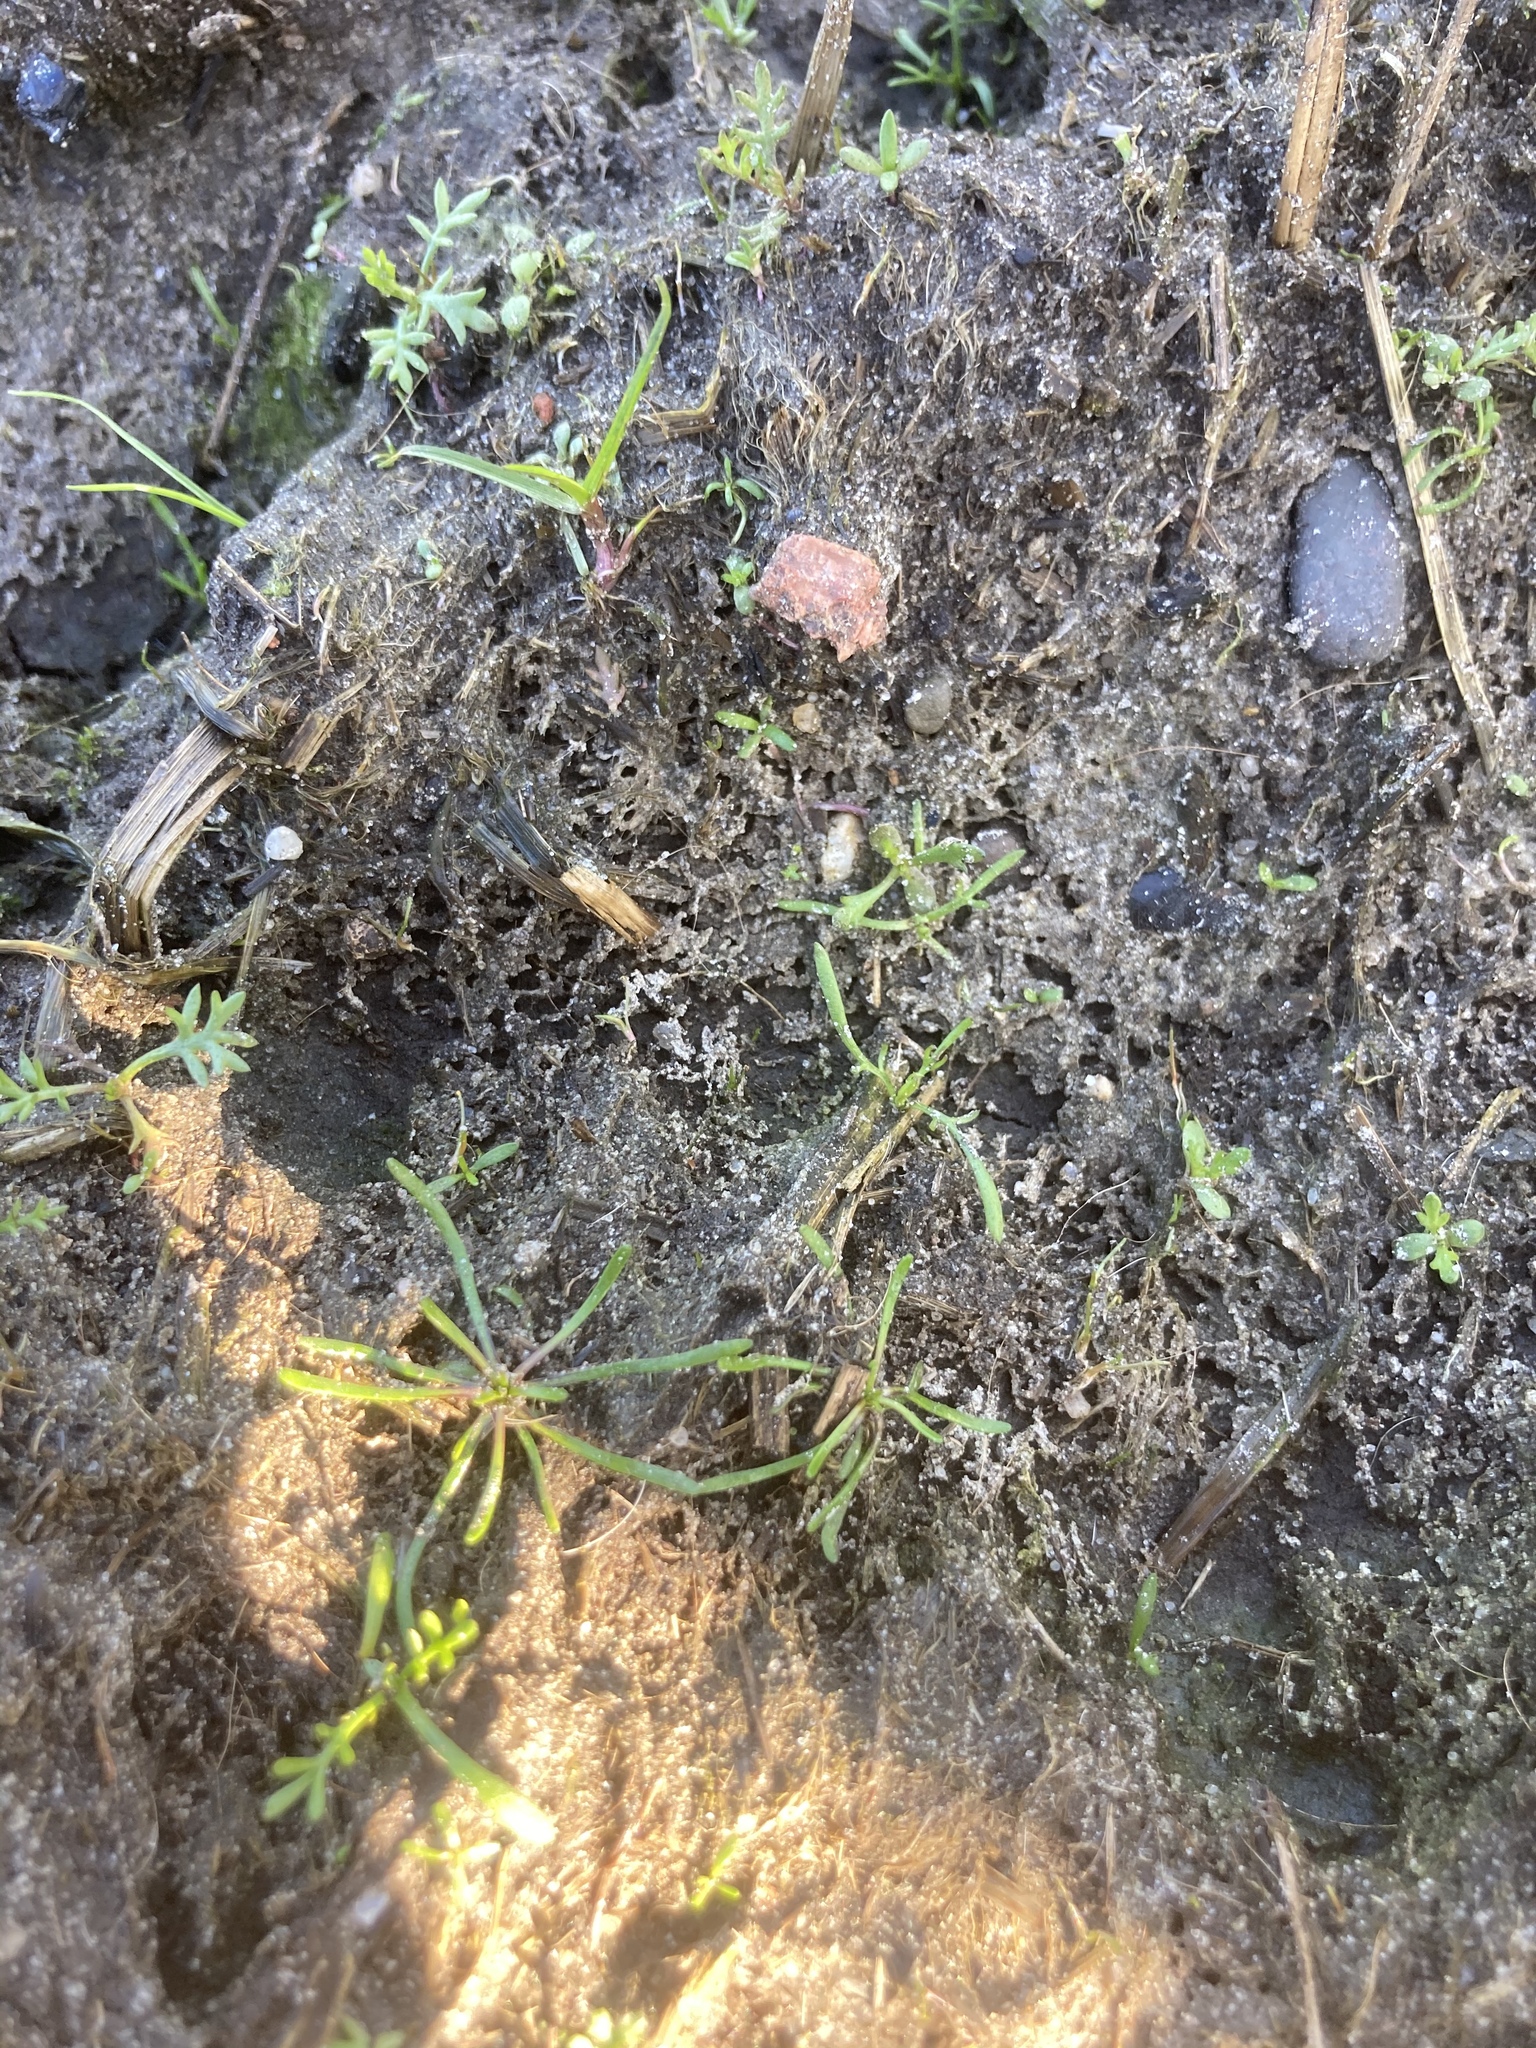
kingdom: Plantae
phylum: Tracheophyta
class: Magnoliopsida
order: Ranunculales
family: Ranunculaceae
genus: Myosurus
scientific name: Myosurus minimus
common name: Mousetail
